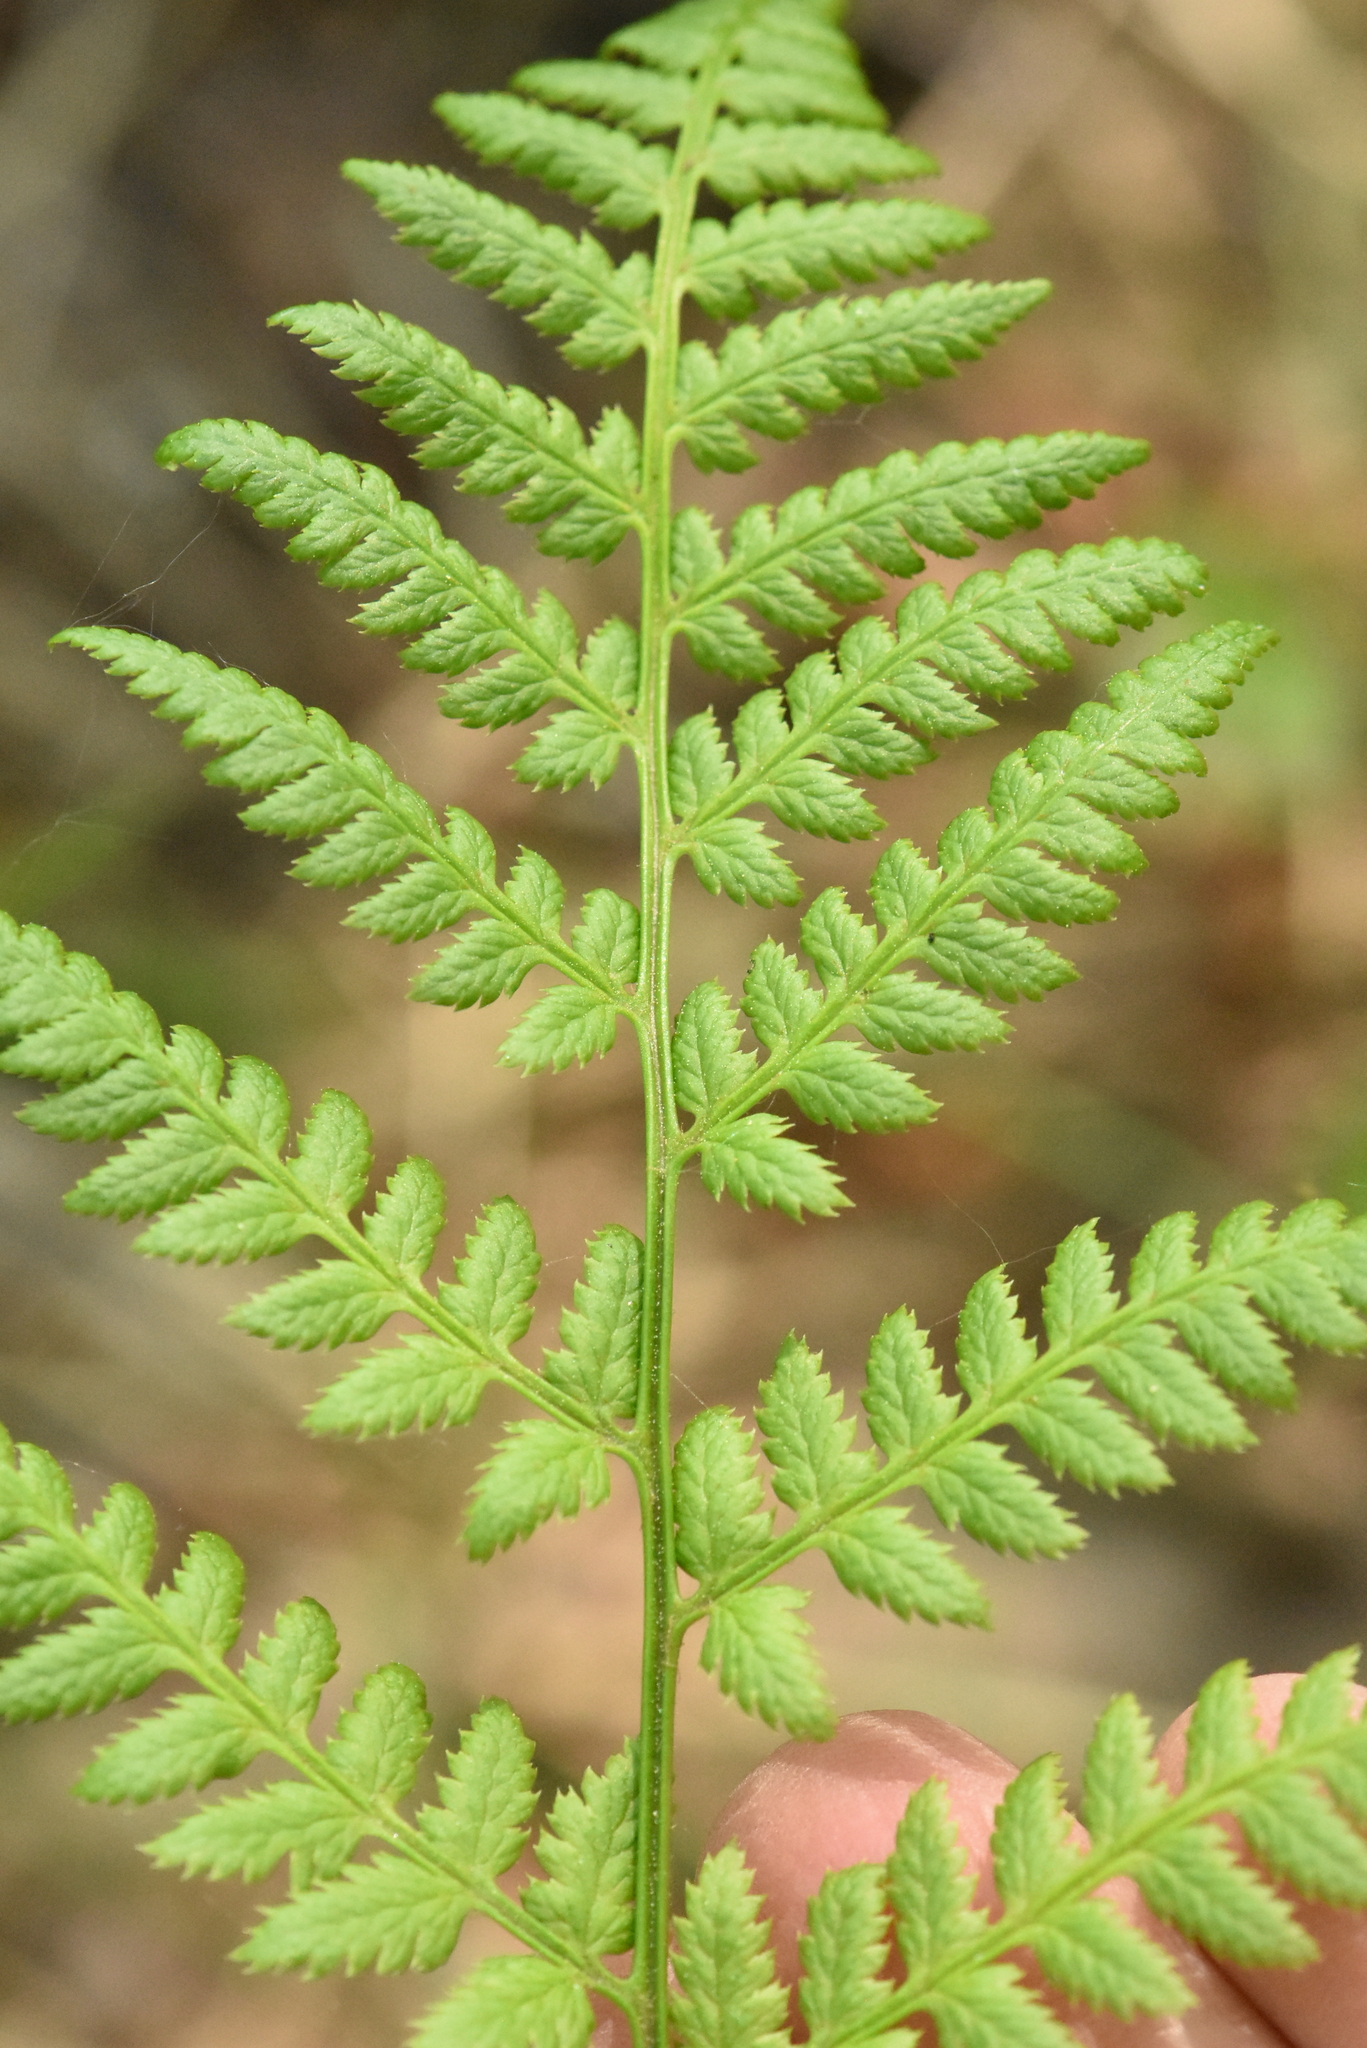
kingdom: Plantae
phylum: Tracheophyta
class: Polypodiopsida
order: Polypodiales
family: Dryopteridaceae
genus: Dryopteris
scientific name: Dryopteris carthusiana
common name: Narrow buckler-fern
